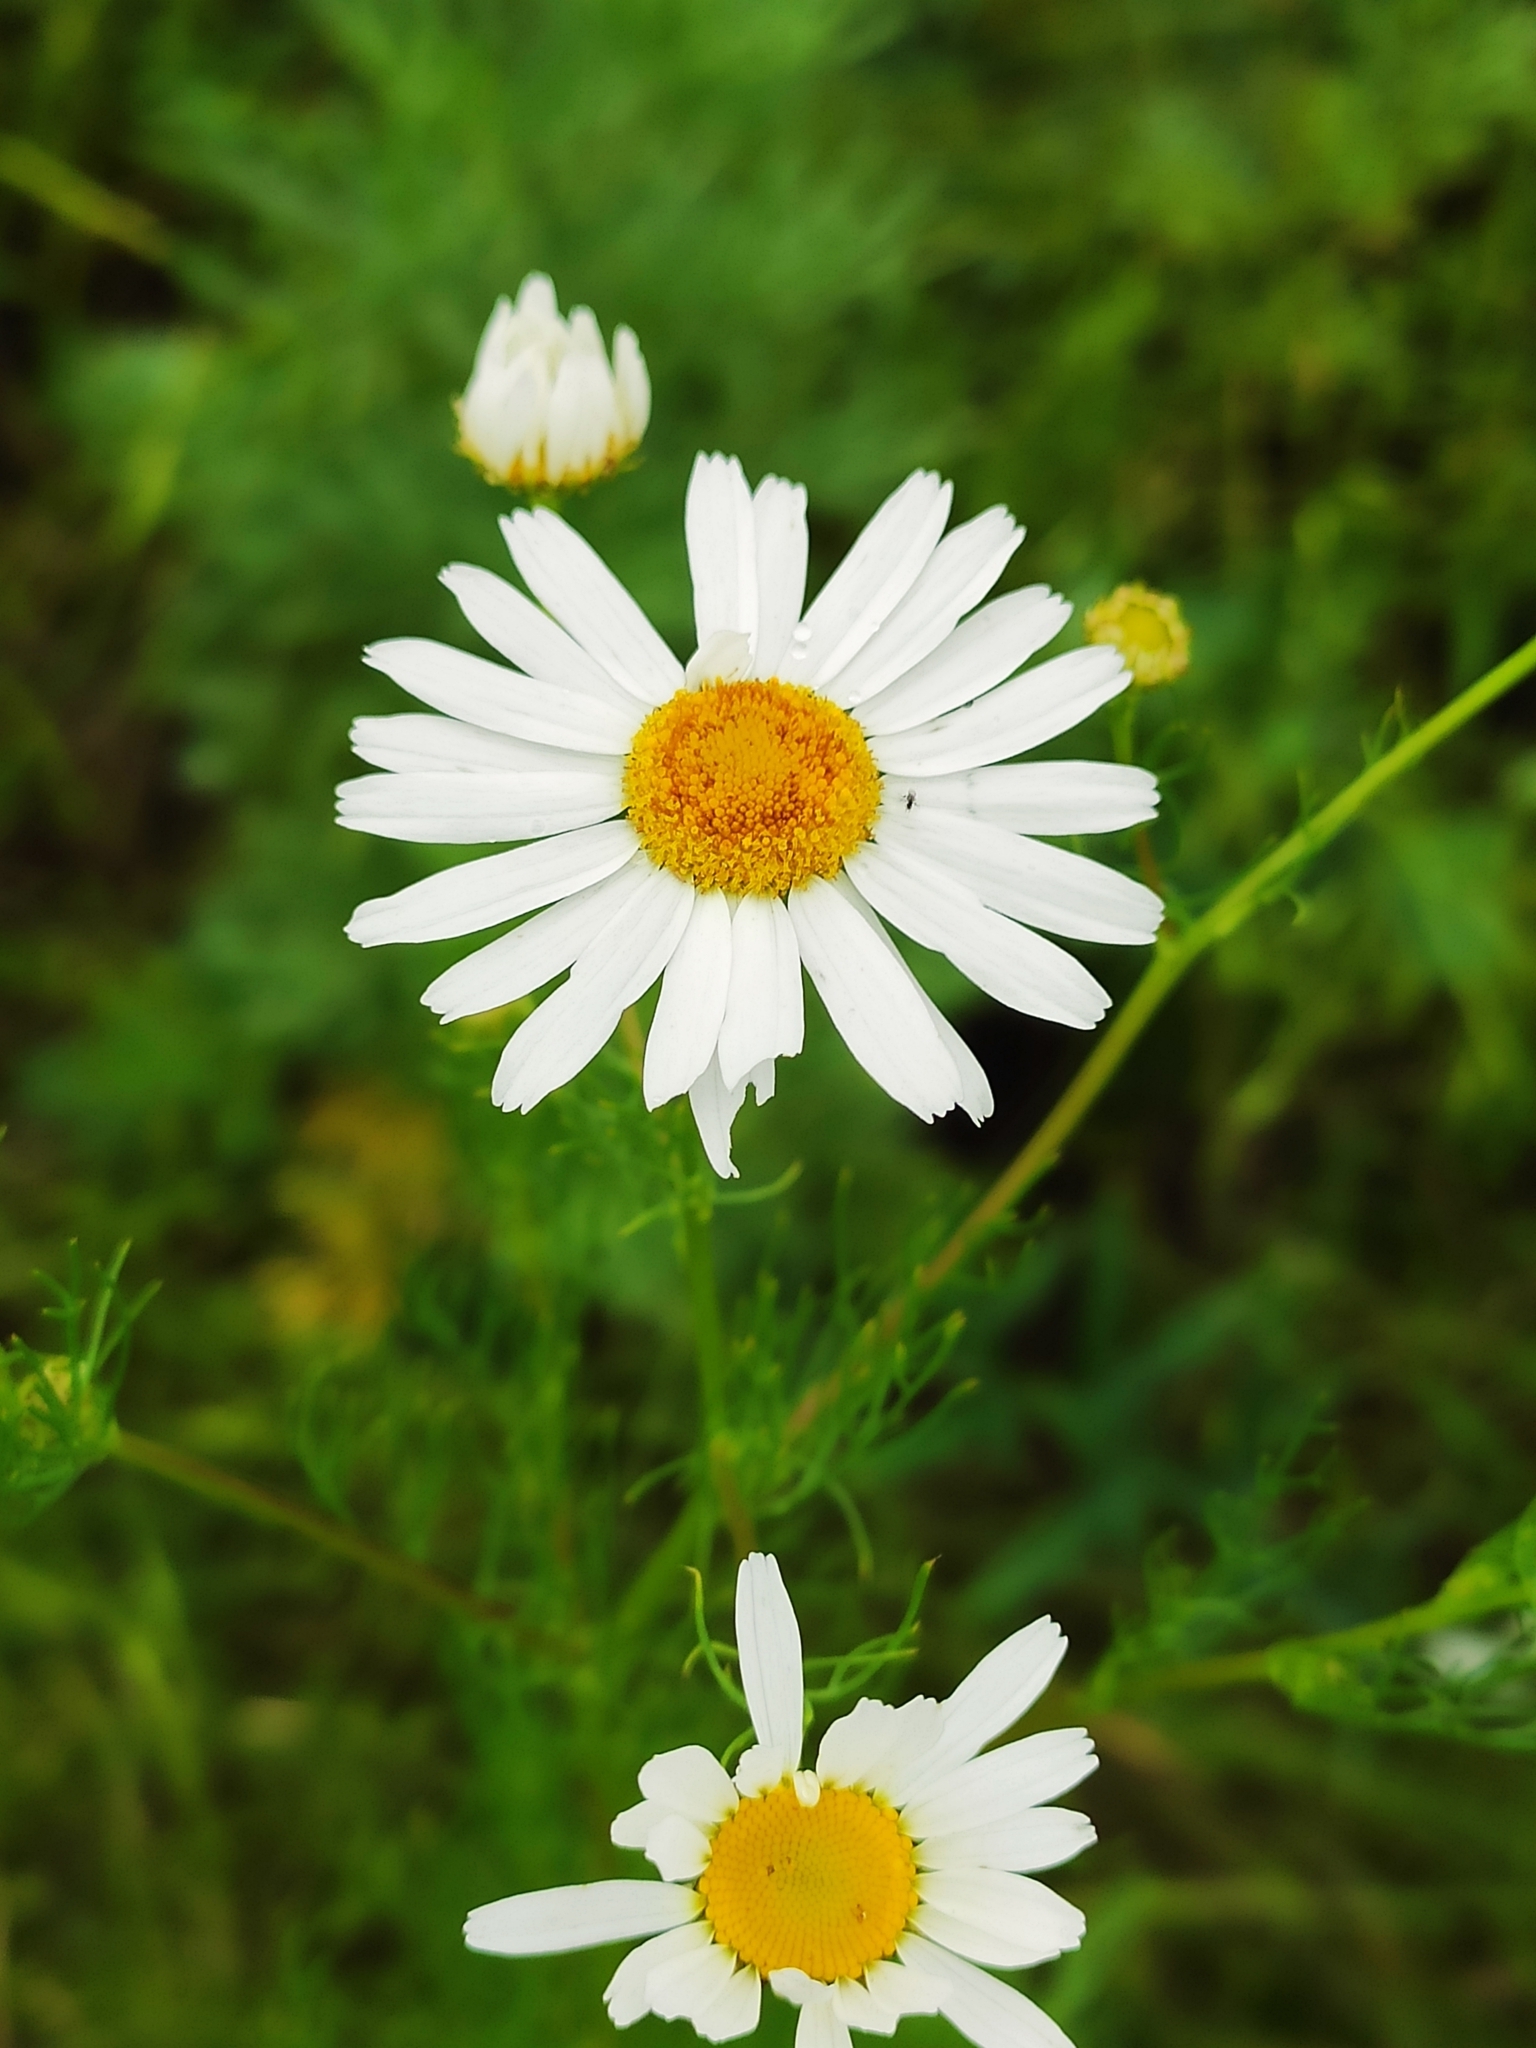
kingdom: Plantae
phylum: Tracheophyta
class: Magnoliopsida
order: Asterales
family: Asteraceae
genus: Tripleurospermum
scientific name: Tripleurospermum inodorum
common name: Scentless mayweed
